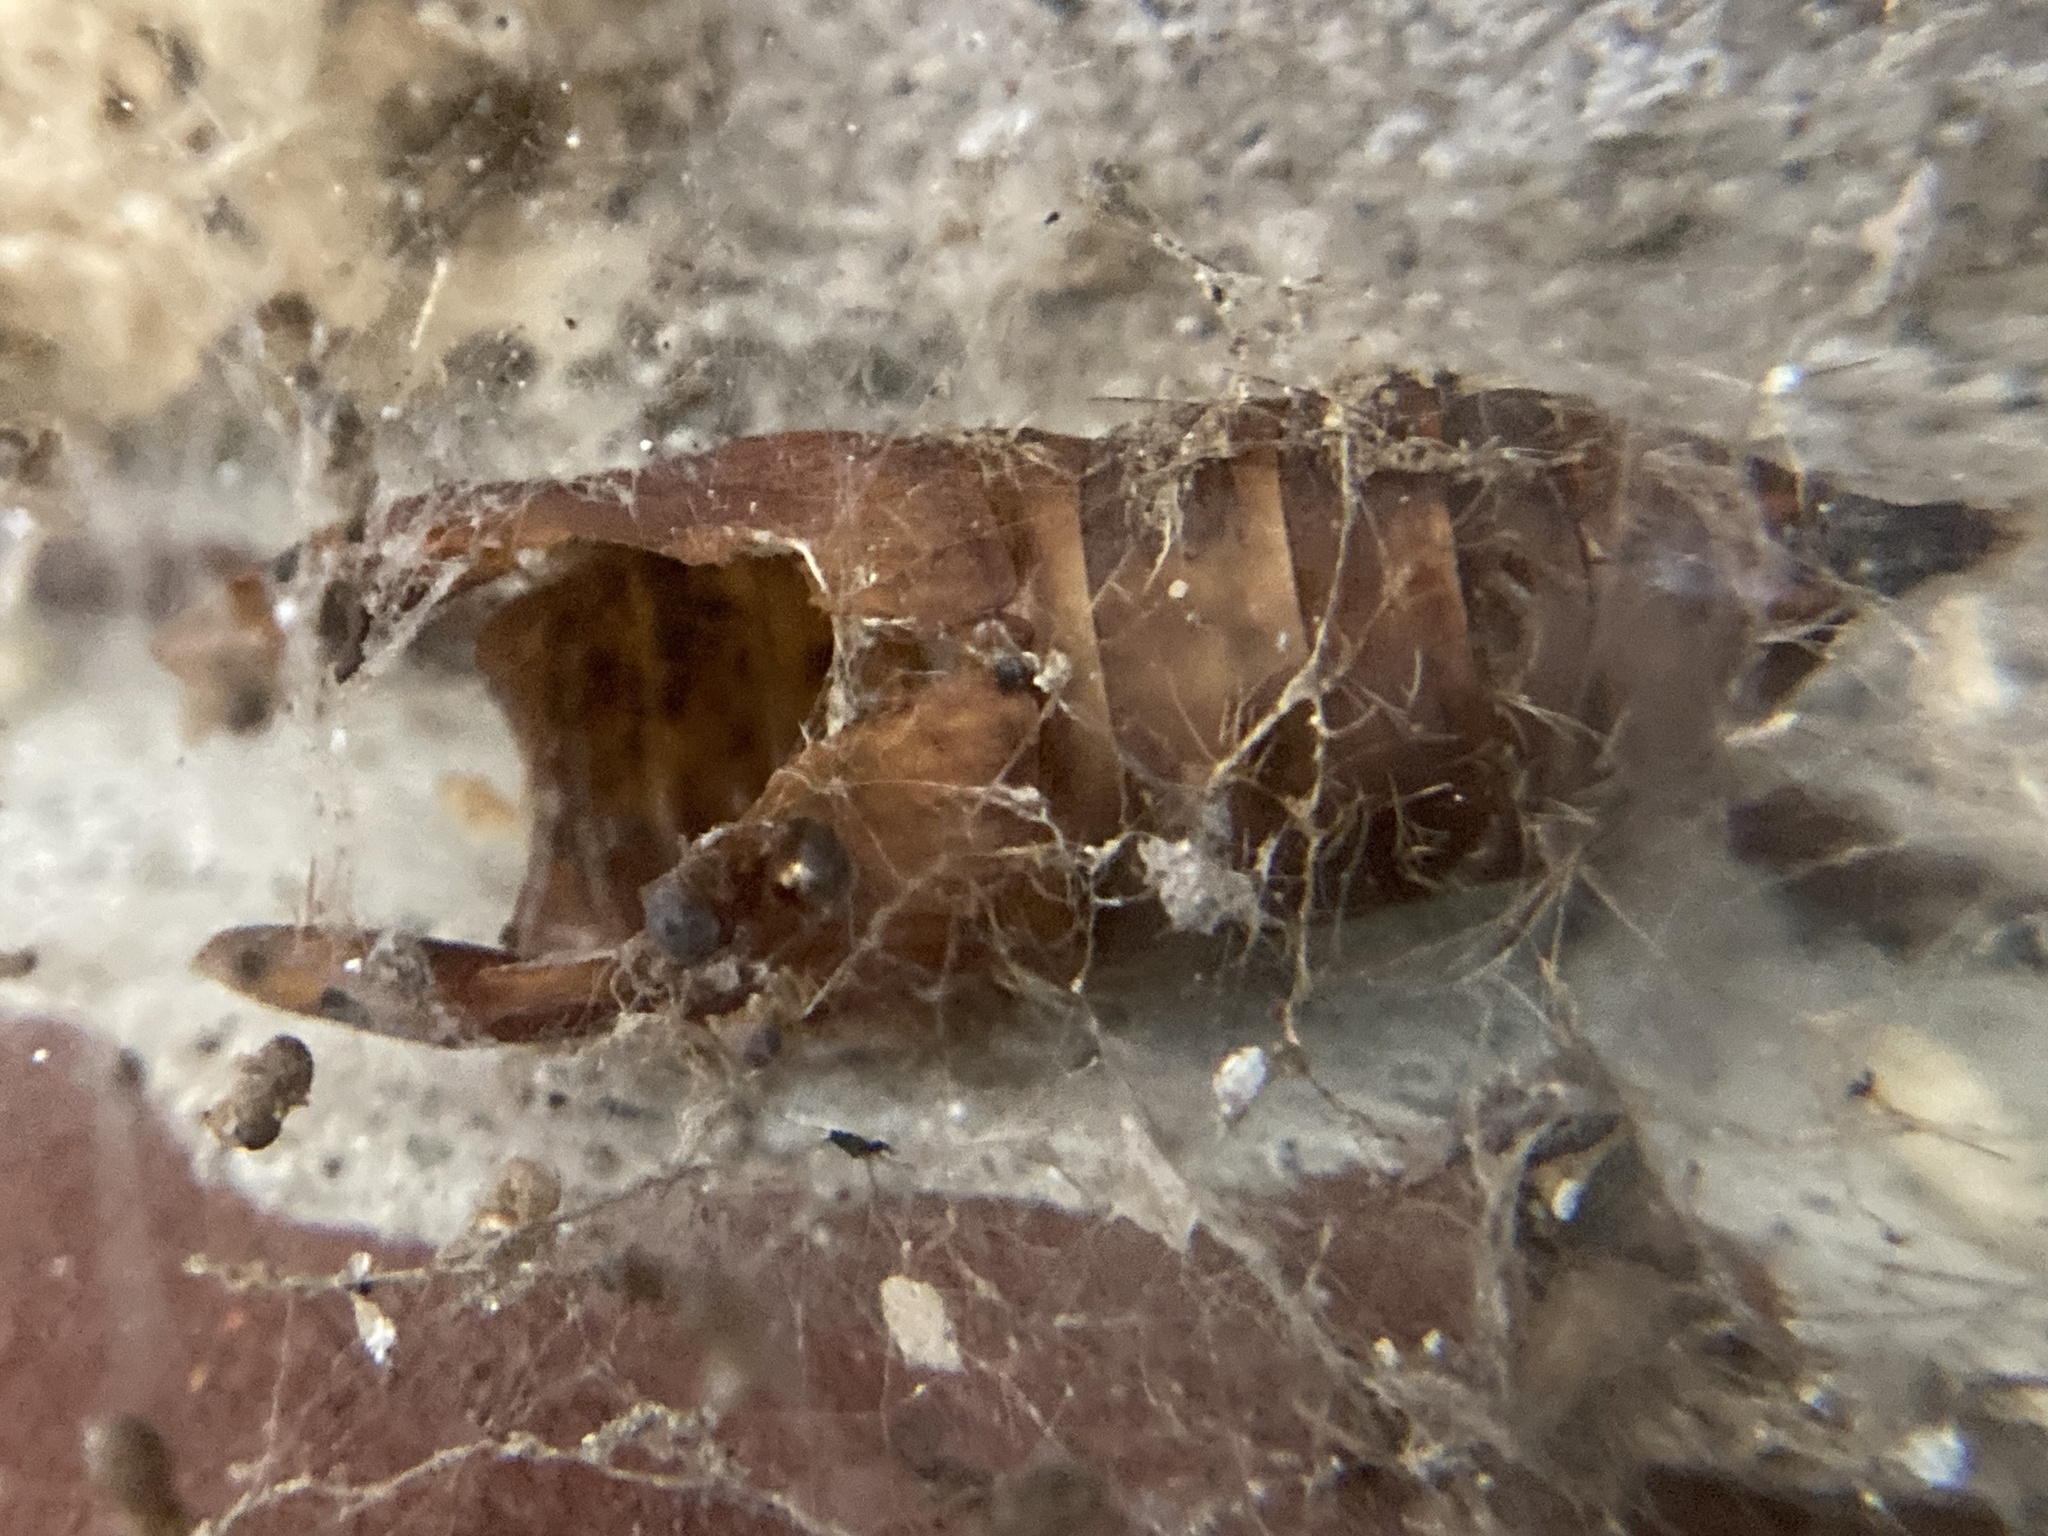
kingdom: Animalia
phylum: Arthropoda
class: Insecta
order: Lepidoptera
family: Erebidae
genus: Lymantria
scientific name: Lymantria dispar
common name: Gypsy moth
